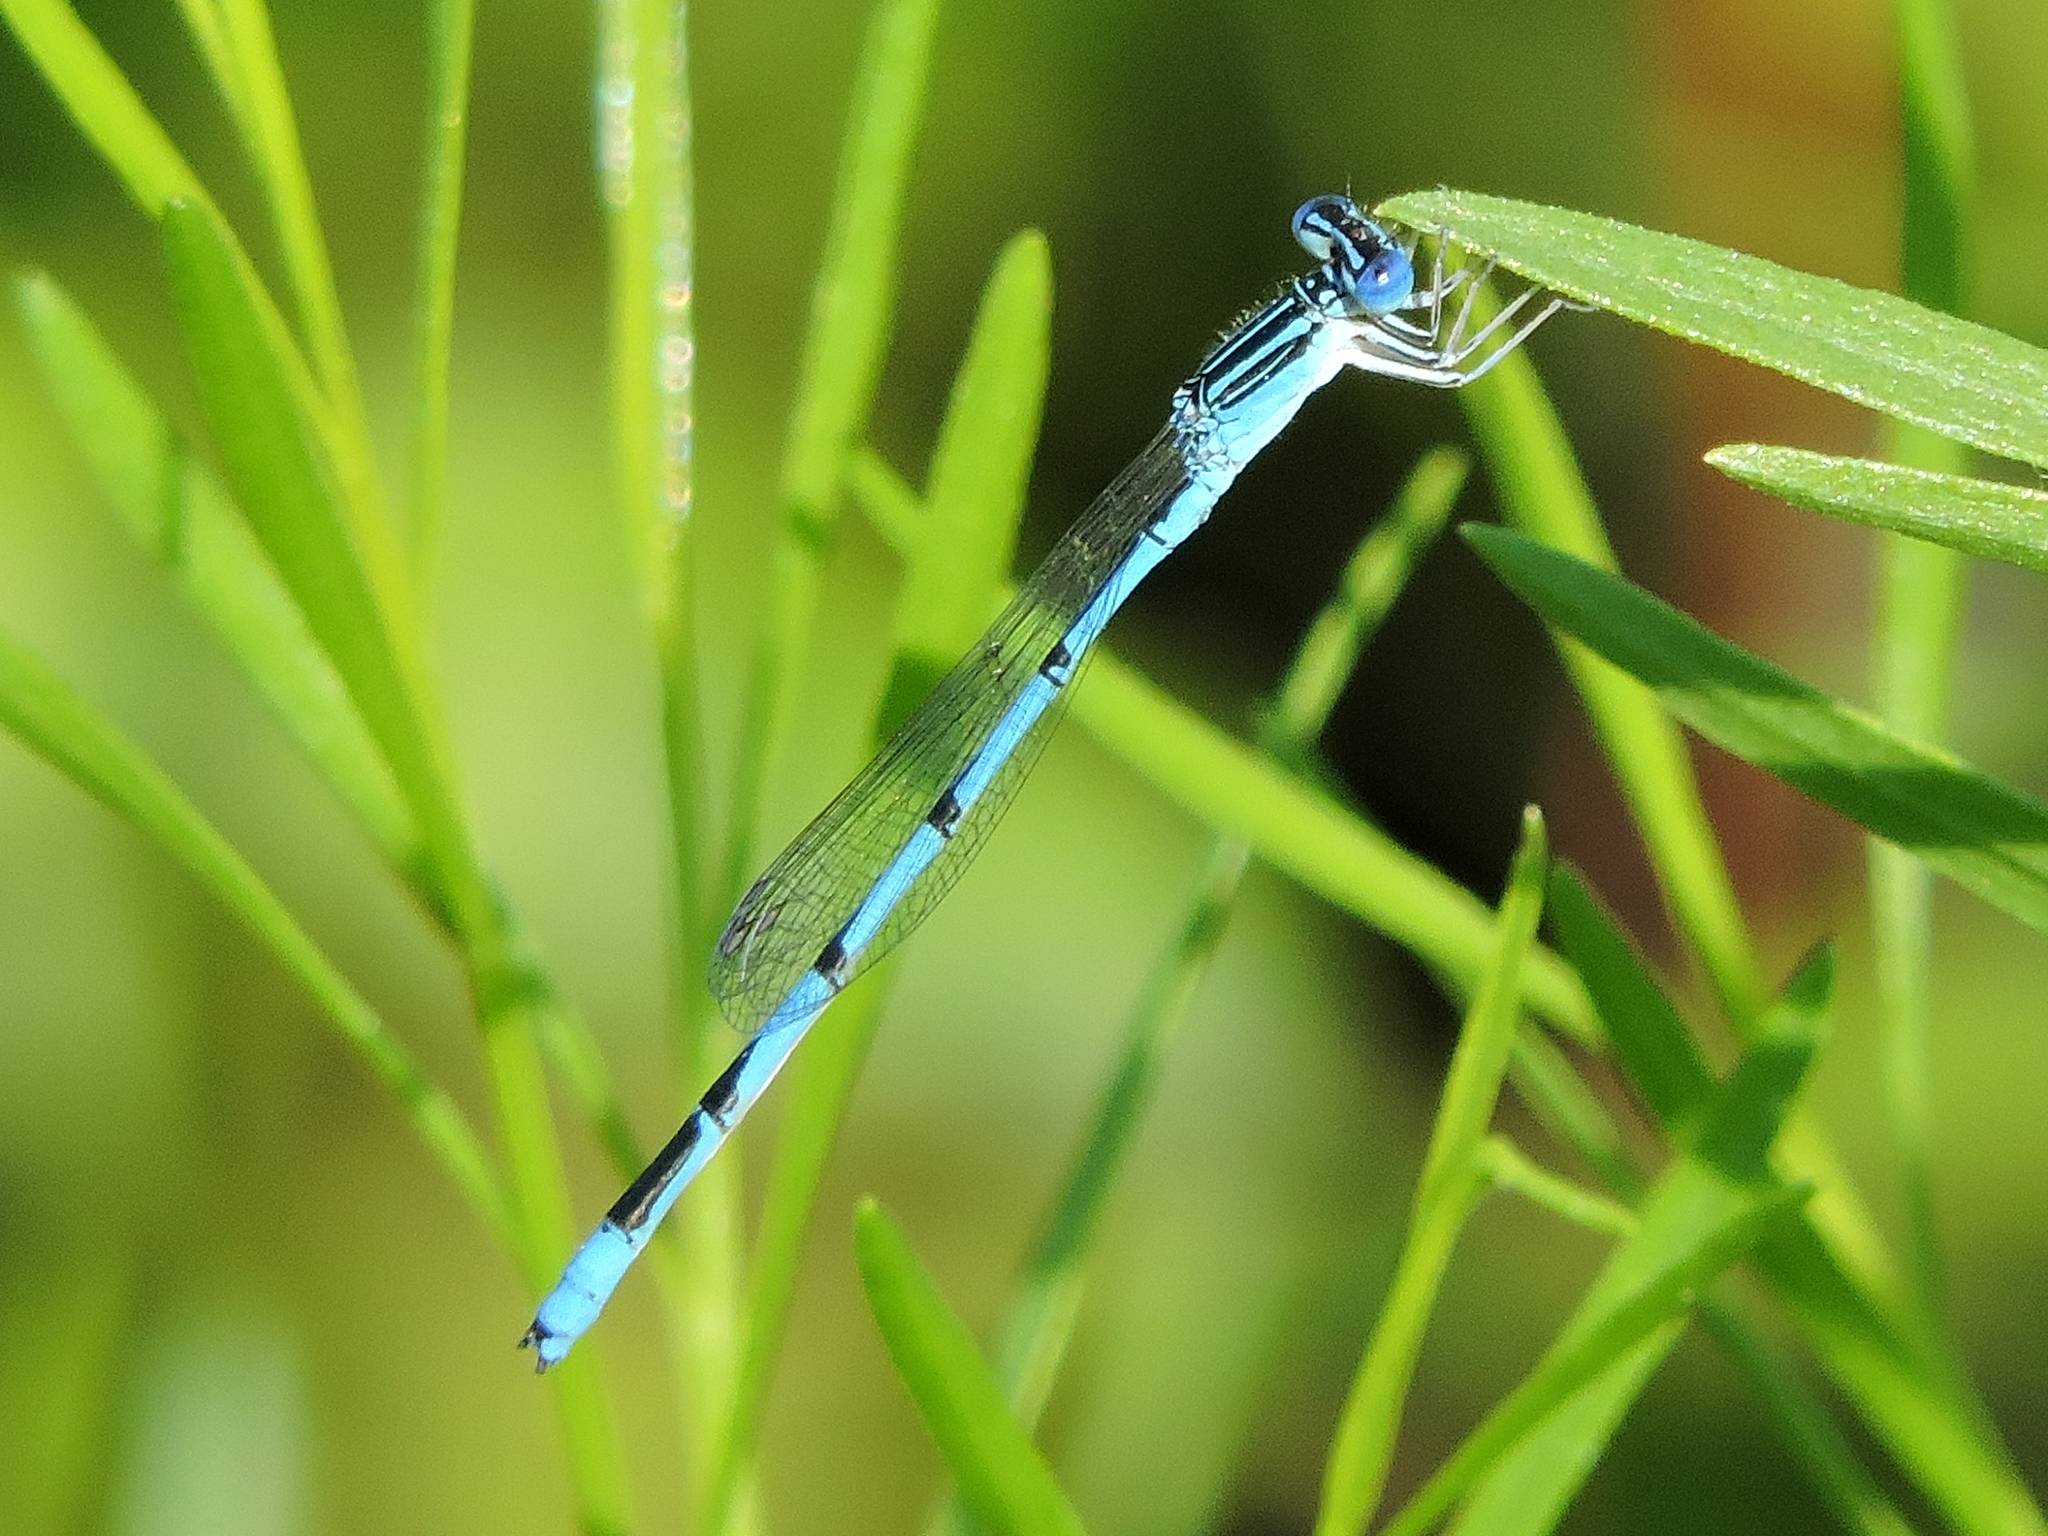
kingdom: Animalia
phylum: Arthropoda
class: Insecta
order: Odonata
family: Coenagrionidae
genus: Enallagma
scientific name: Enallagma basidens
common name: Double-striped bluet
